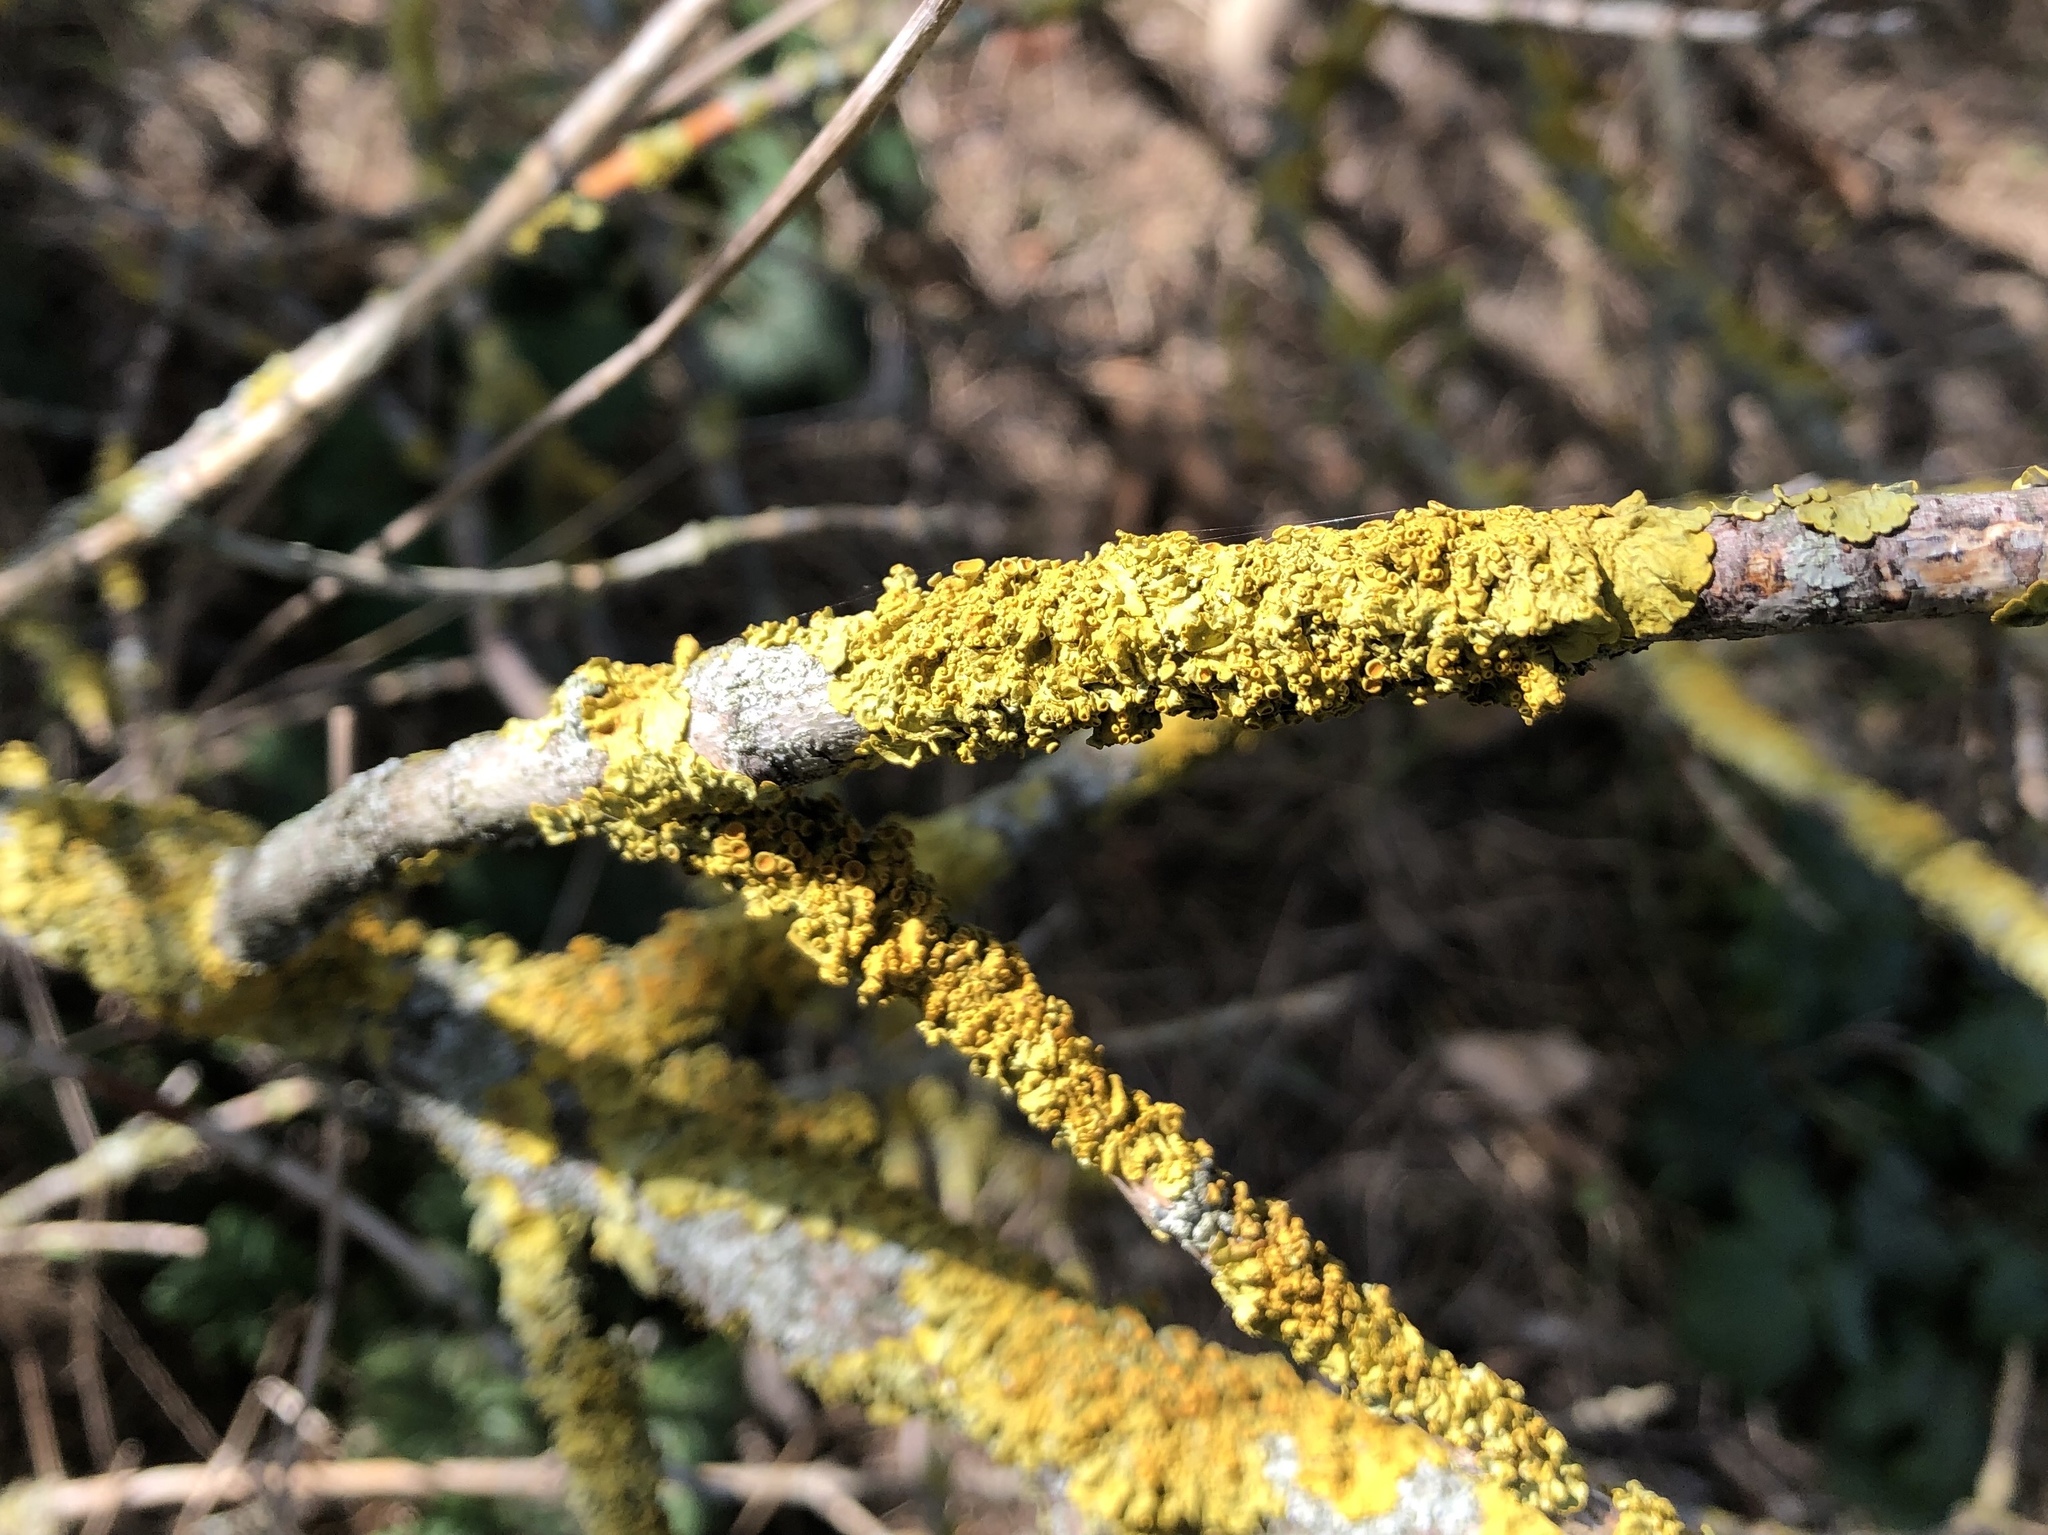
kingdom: Fungi
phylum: Ascomycota
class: Lecanoromycetes
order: Teloschistales
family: Teloschistaceae
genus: Xanthoria
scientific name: Xanthoria parietina
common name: Common orange lichen
